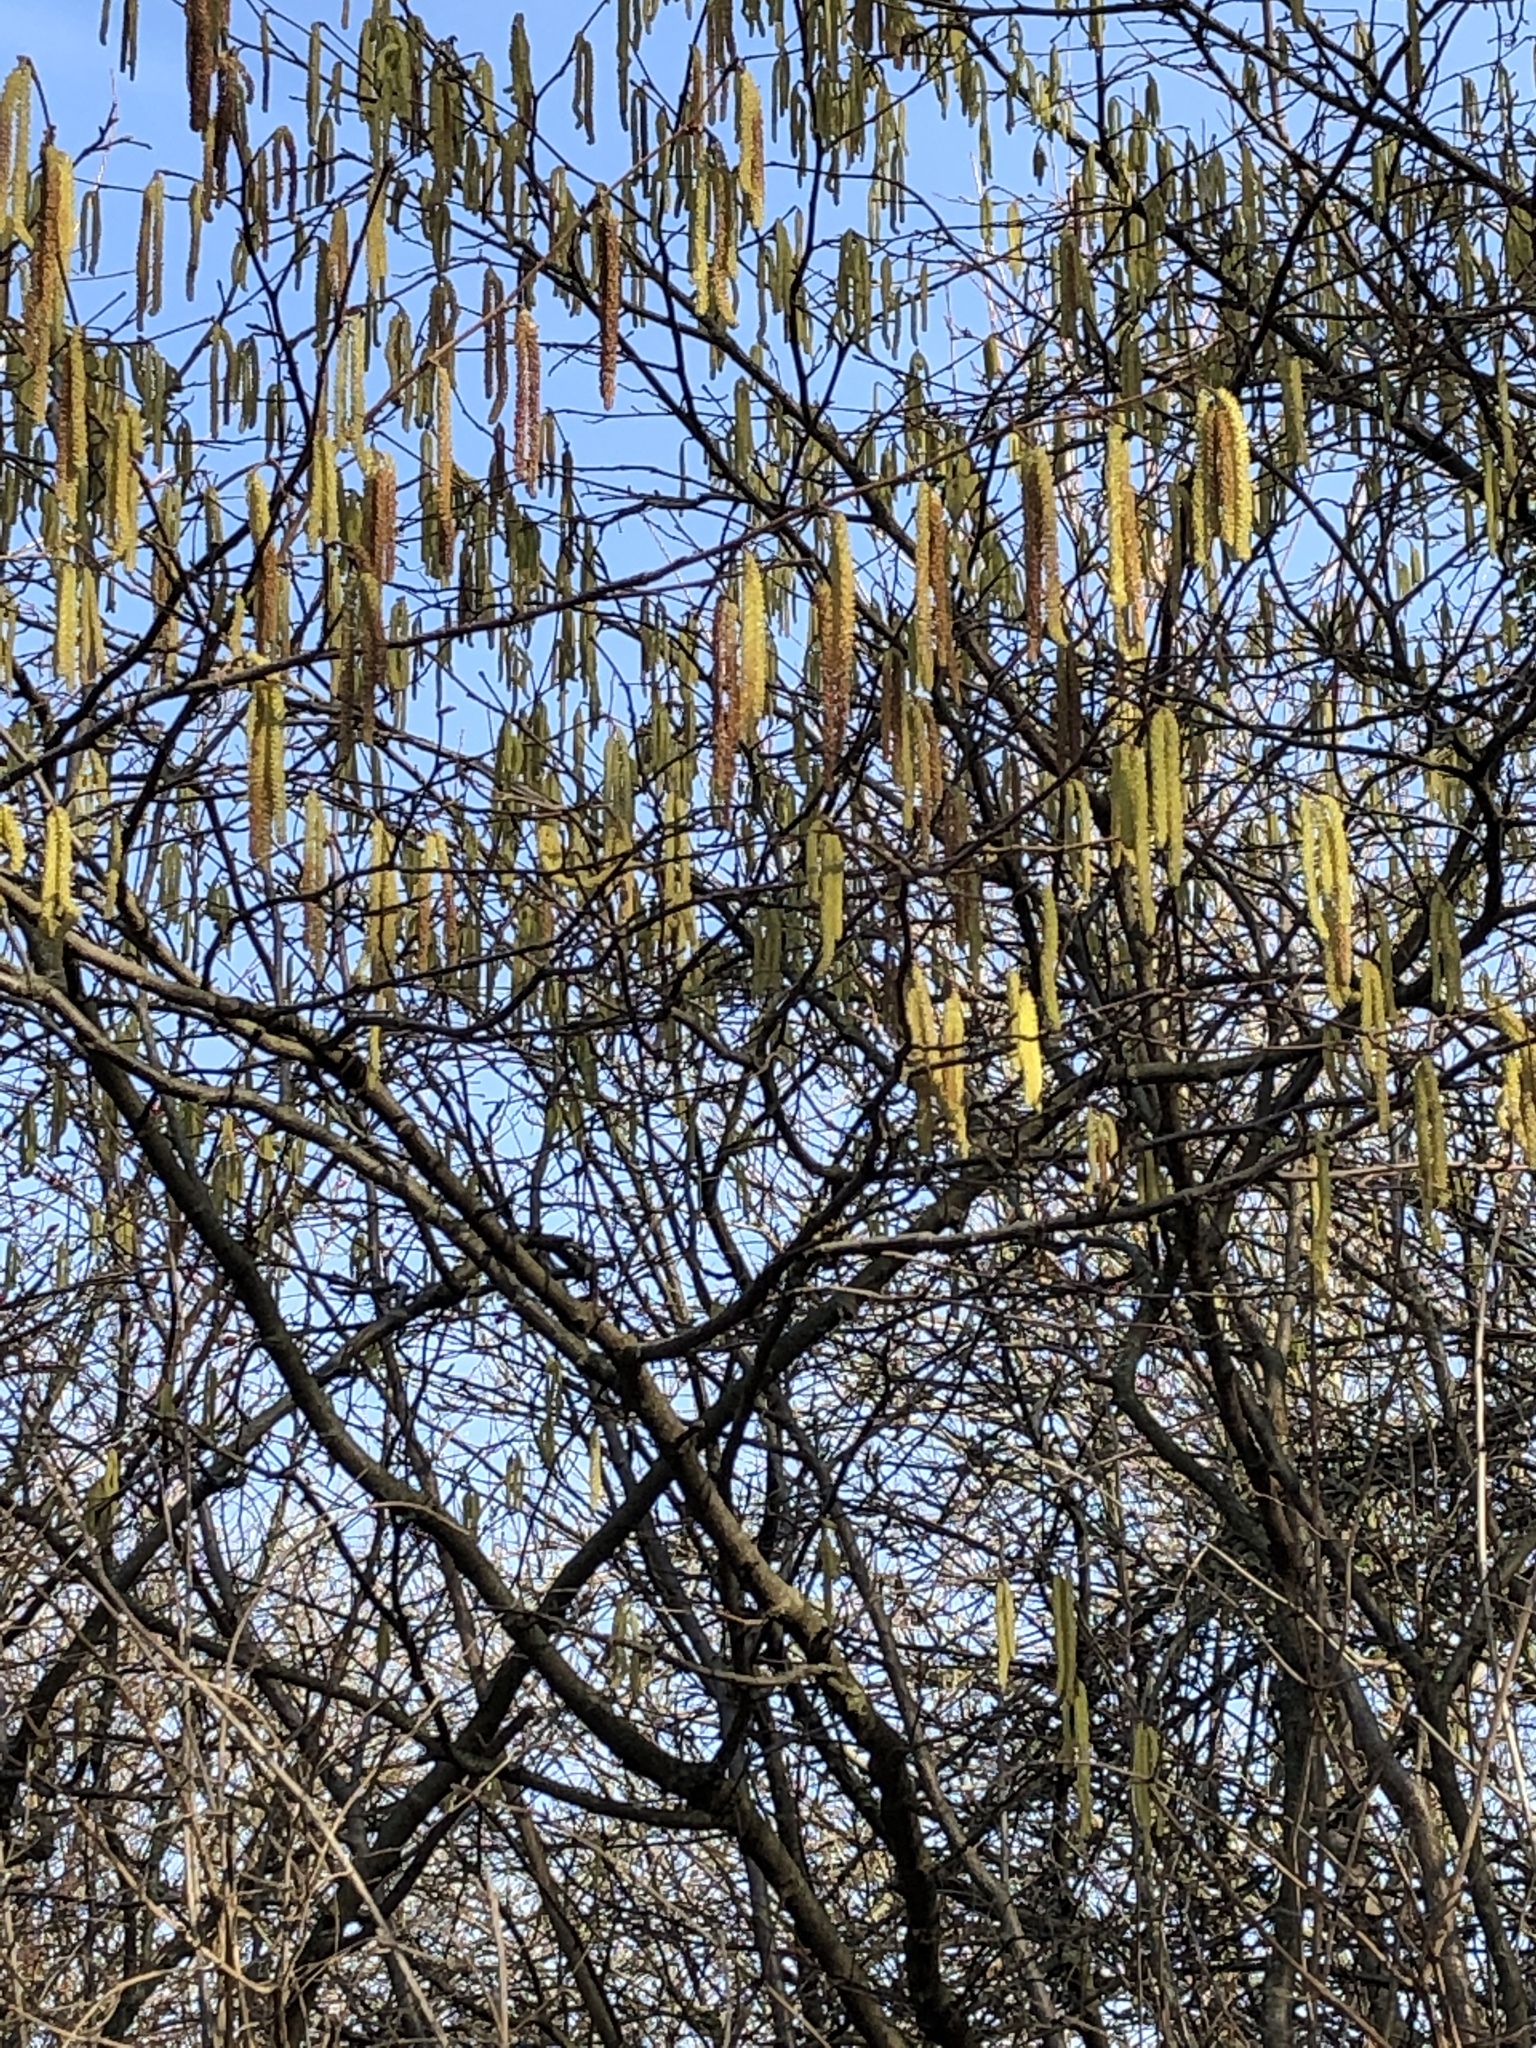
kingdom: Plantae
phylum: Tracheophyta
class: Magnoliopsida
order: Fagales
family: Betulaceae
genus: Corylus
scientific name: Corylus avellana
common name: European hazel
